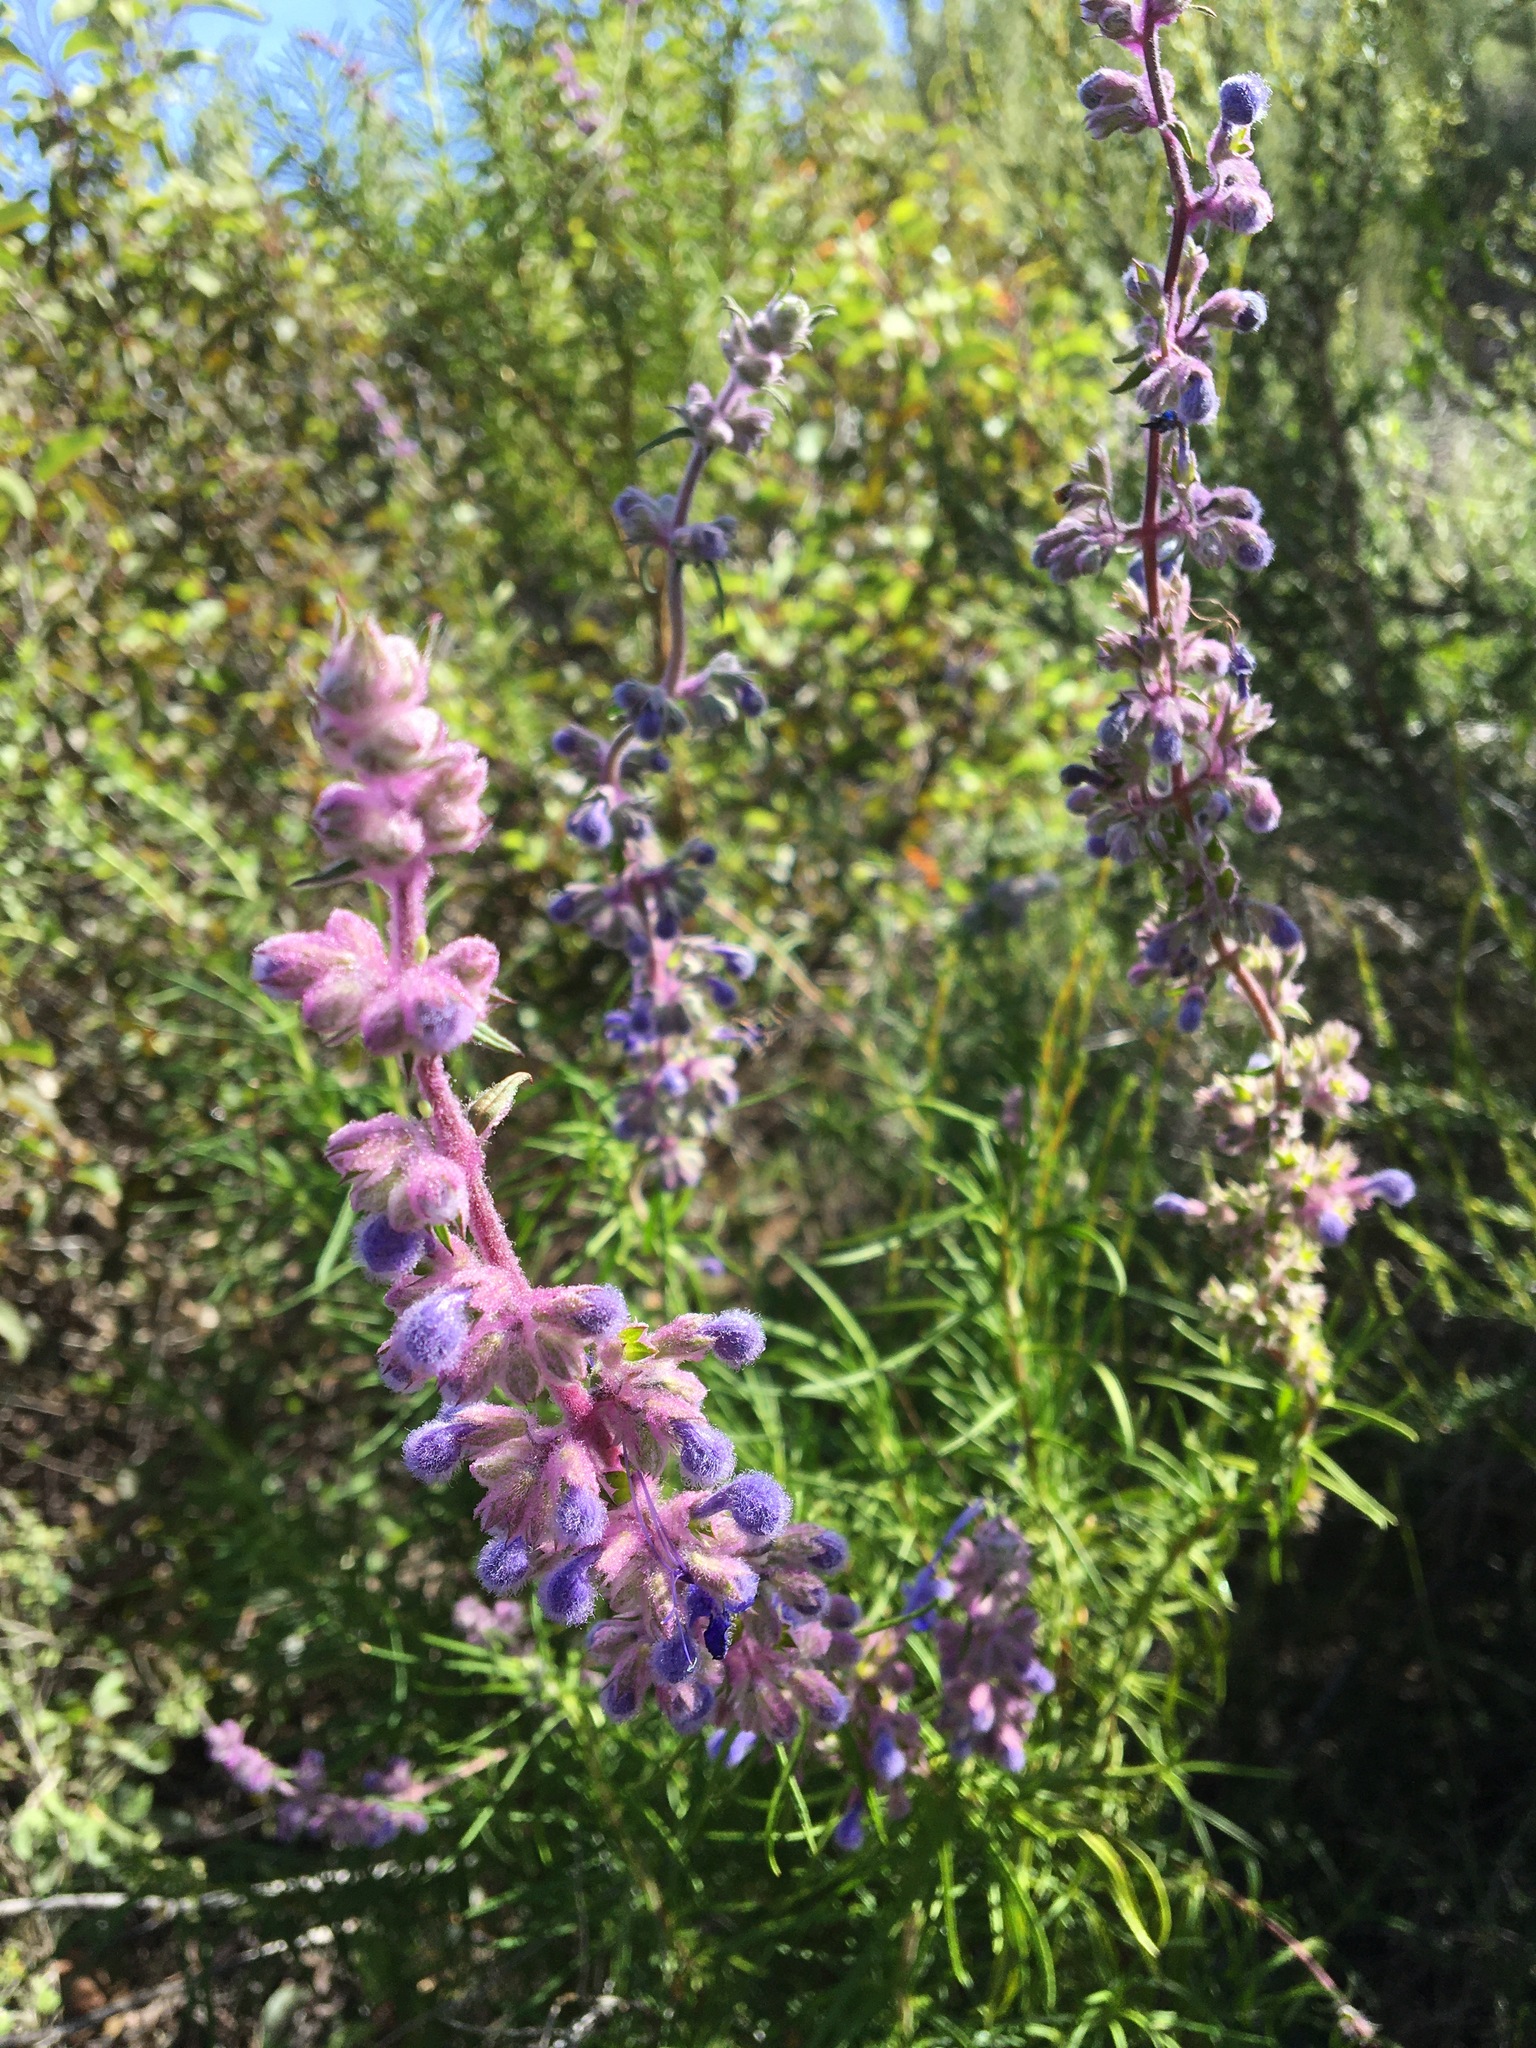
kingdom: Plantae
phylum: Tracheophyta
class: Magnoliopsida
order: Lamiales
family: Lamiaceae
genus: Trichostema
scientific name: Trichostema lanatum
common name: Woolly bluecurls
